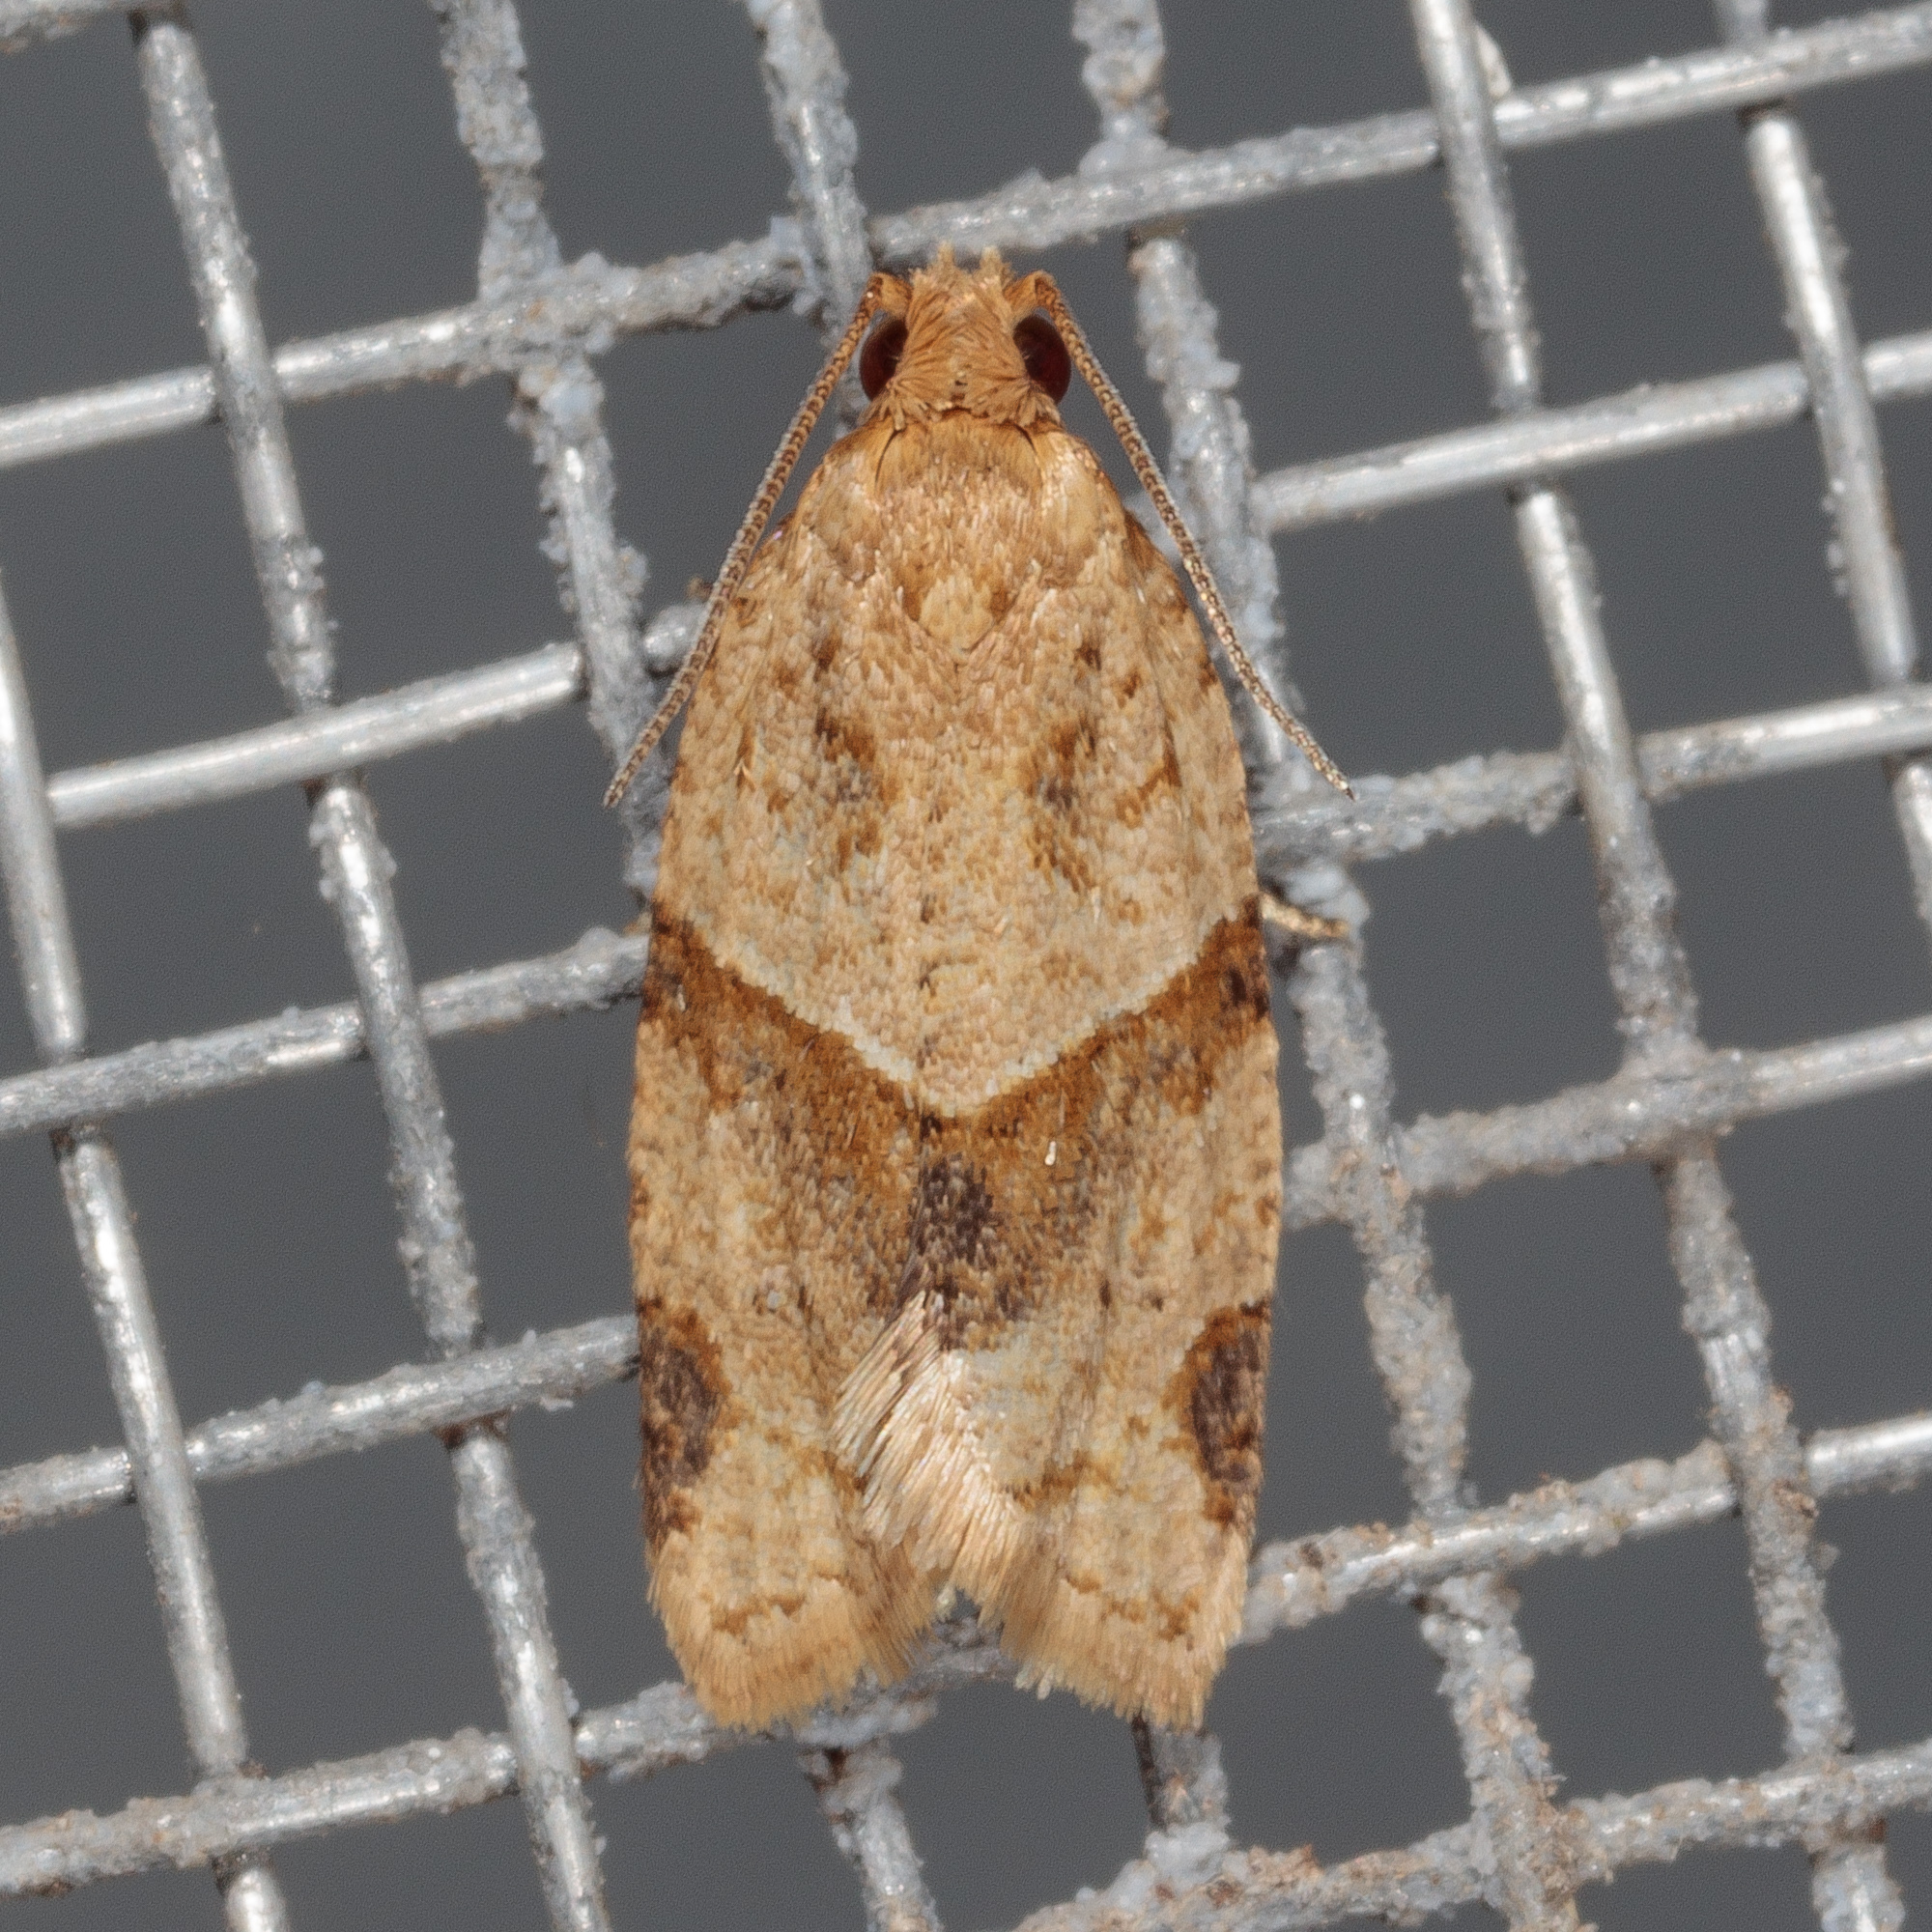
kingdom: Animalia
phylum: Arthropoda
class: Insecta
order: Lepidoptera
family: Tortricidae
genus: Clepsis
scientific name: Clepsis peritana
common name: Garden tortrix
